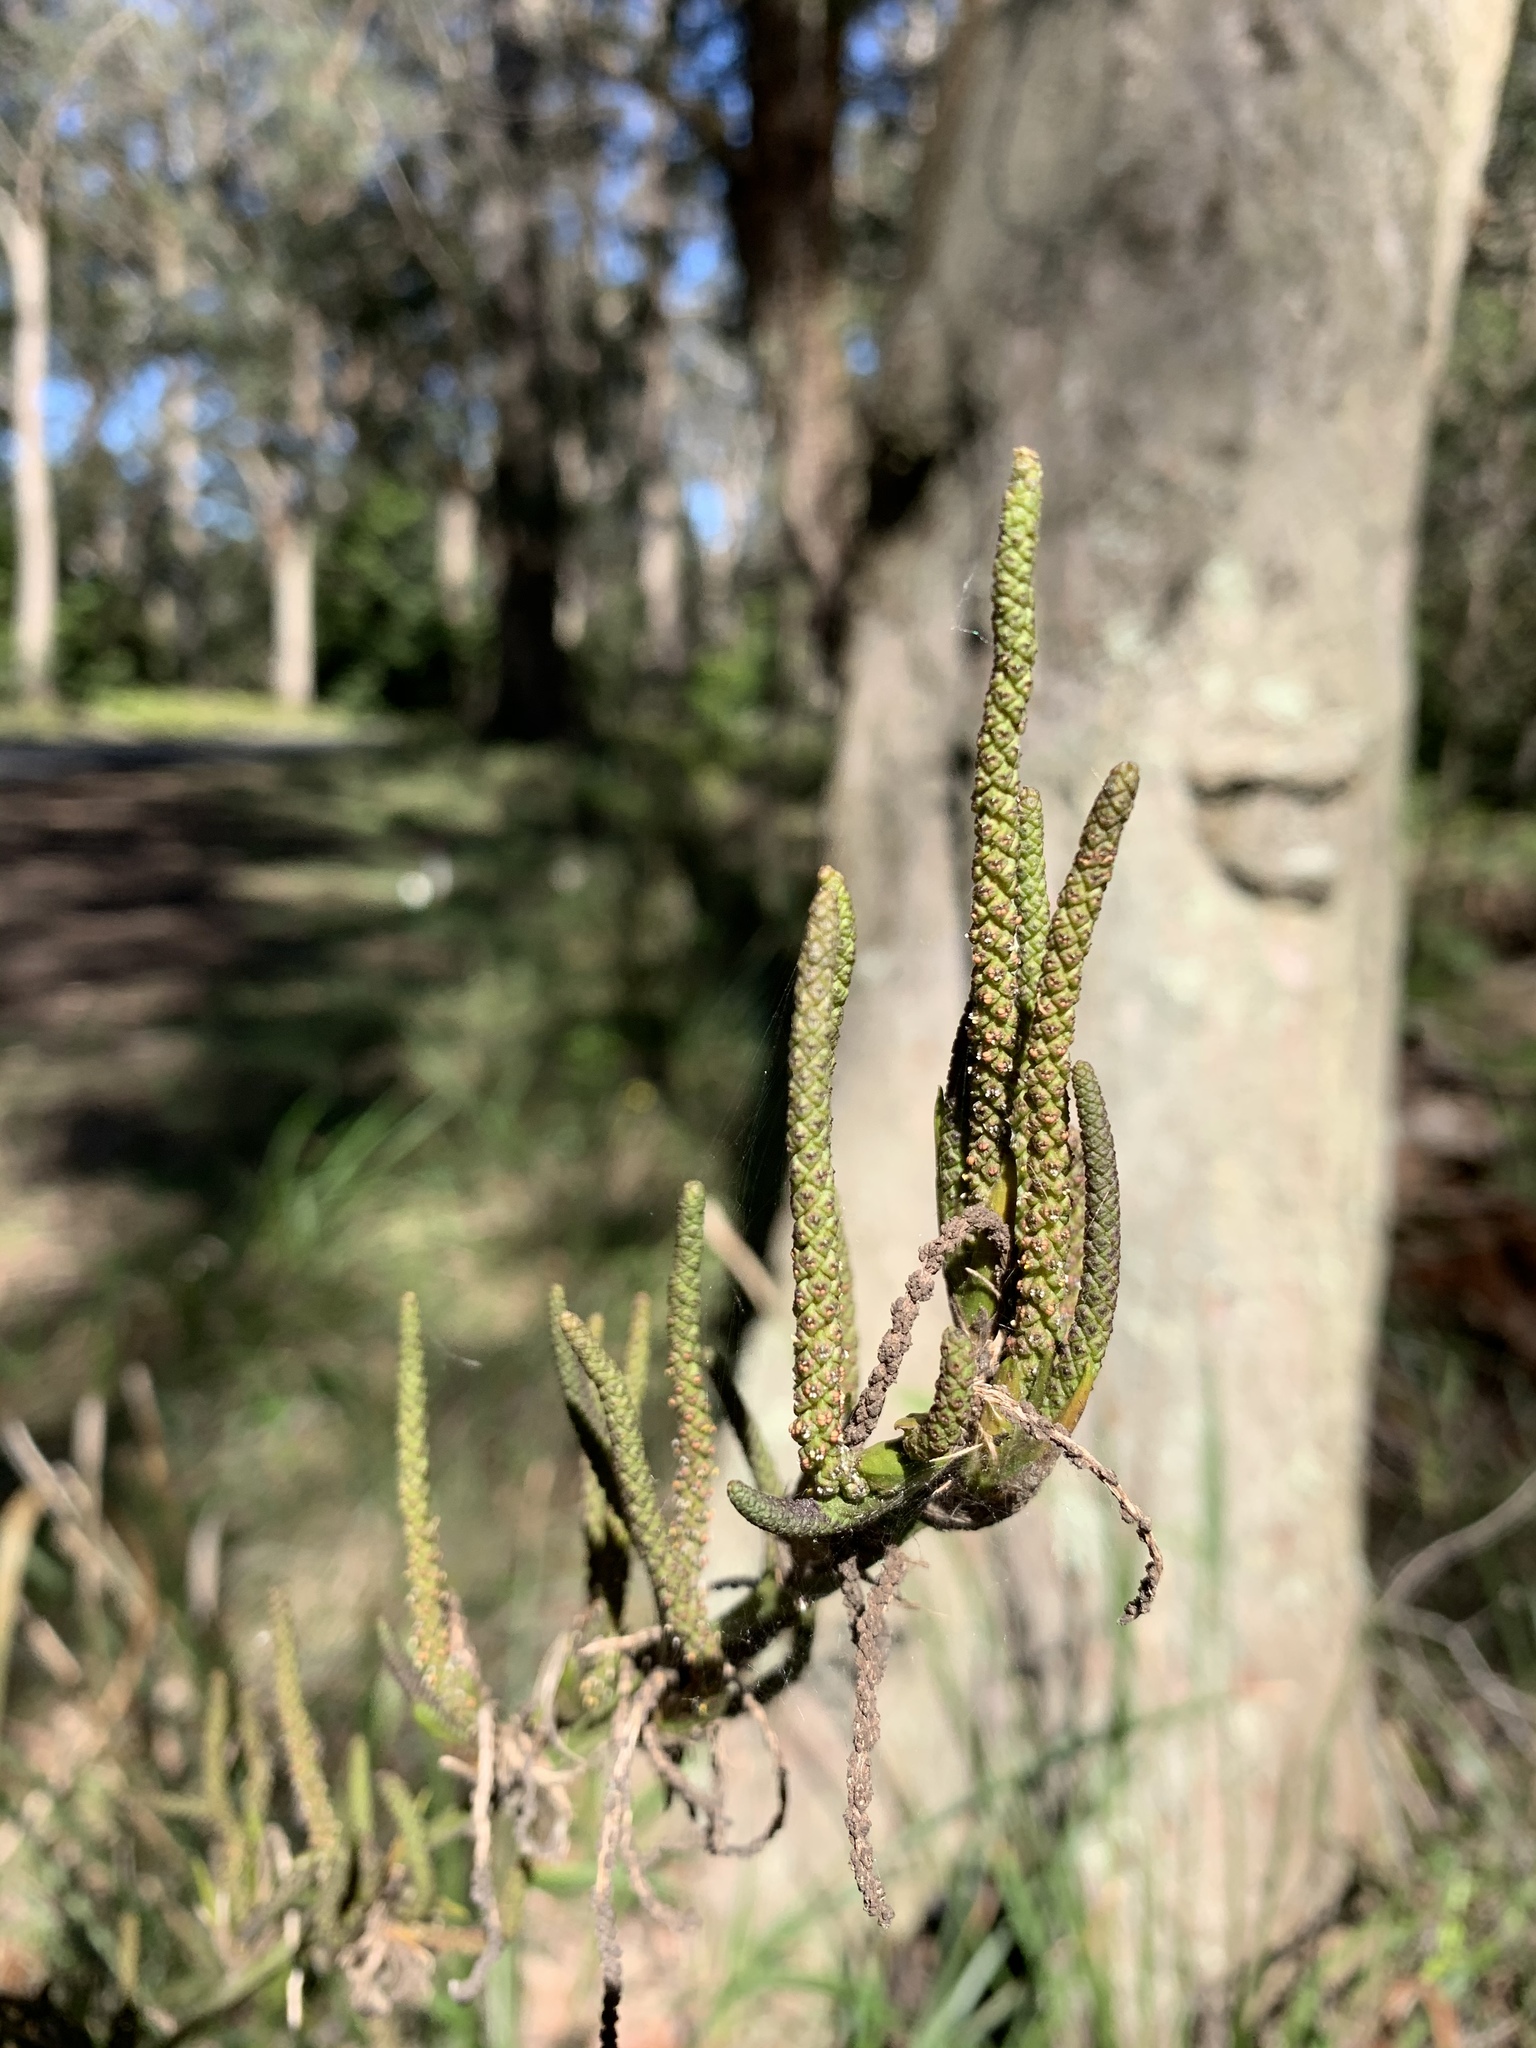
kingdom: Plantae
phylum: Tracheophyta
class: Liliopsida
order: Alismatales
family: Araceae
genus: Gymnostachys
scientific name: Gymnostachys anceps
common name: Settler's-flax
